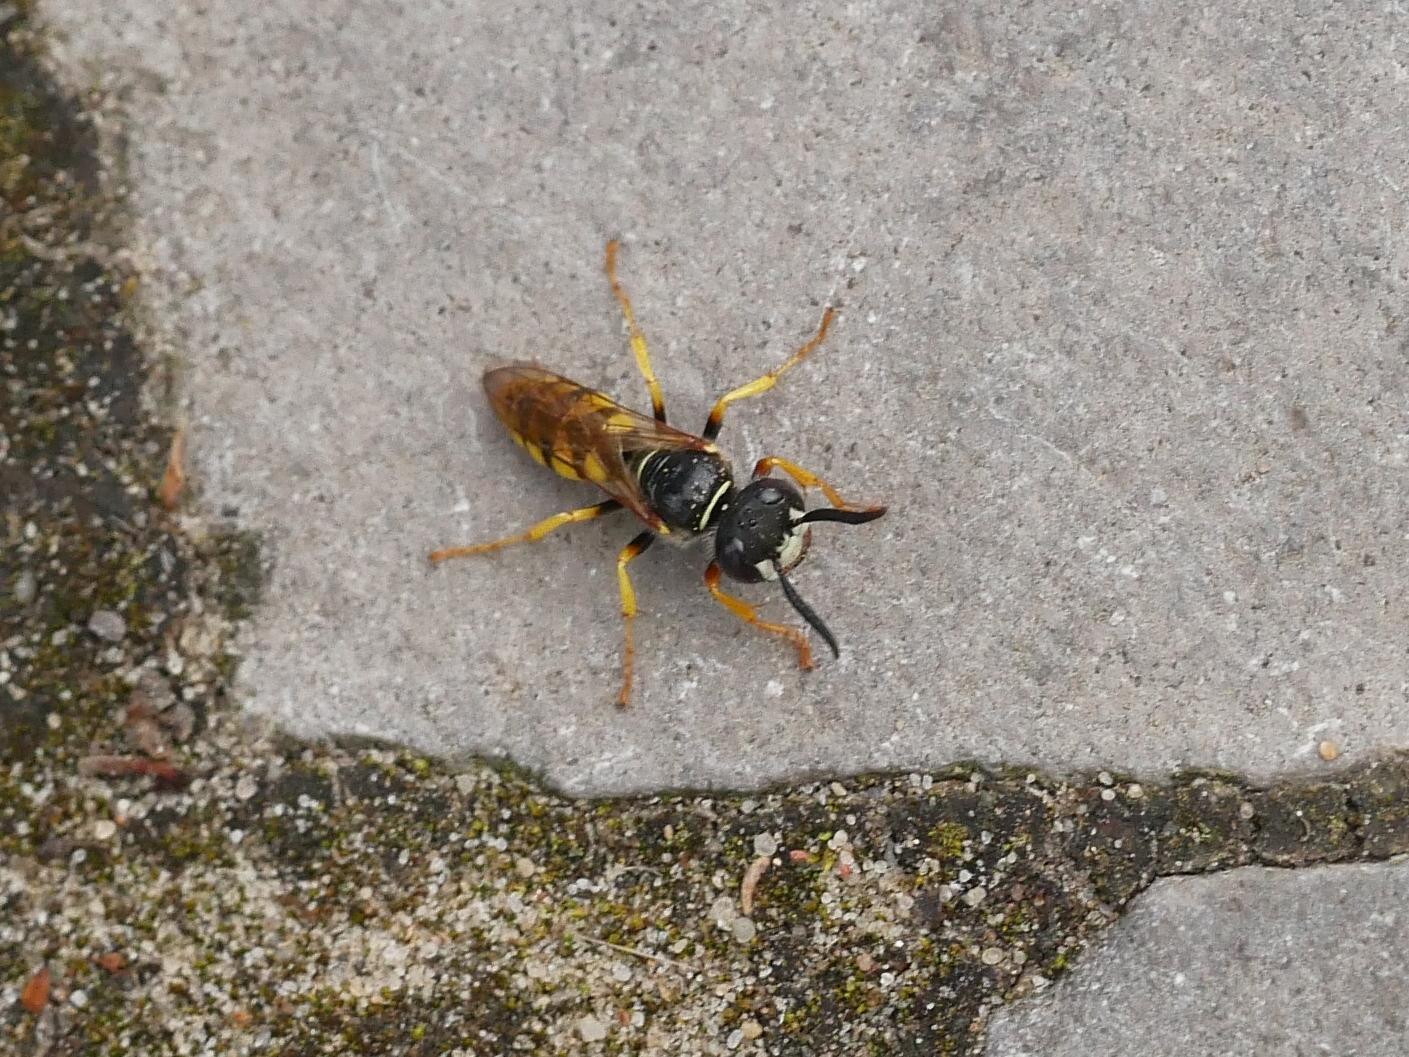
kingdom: Animalia
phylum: Arthropoda
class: Insecta
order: Hymenoptera
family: Crabronidae
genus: Philanthus
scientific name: Philanthus triangulum
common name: Bee wolf
